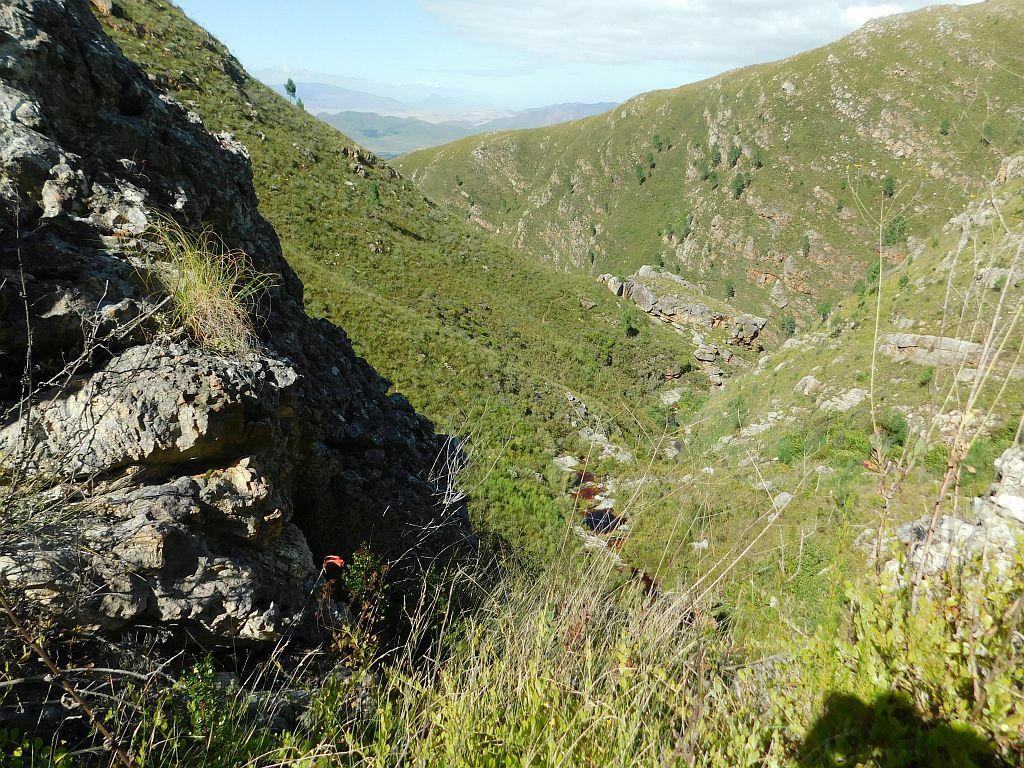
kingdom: Plantae
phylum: Tracheophyta
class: Liliopsida
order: Asparagales
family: Amaryllidaceae
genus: Cyrtanthus
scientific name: Cyrtanthus collinus
